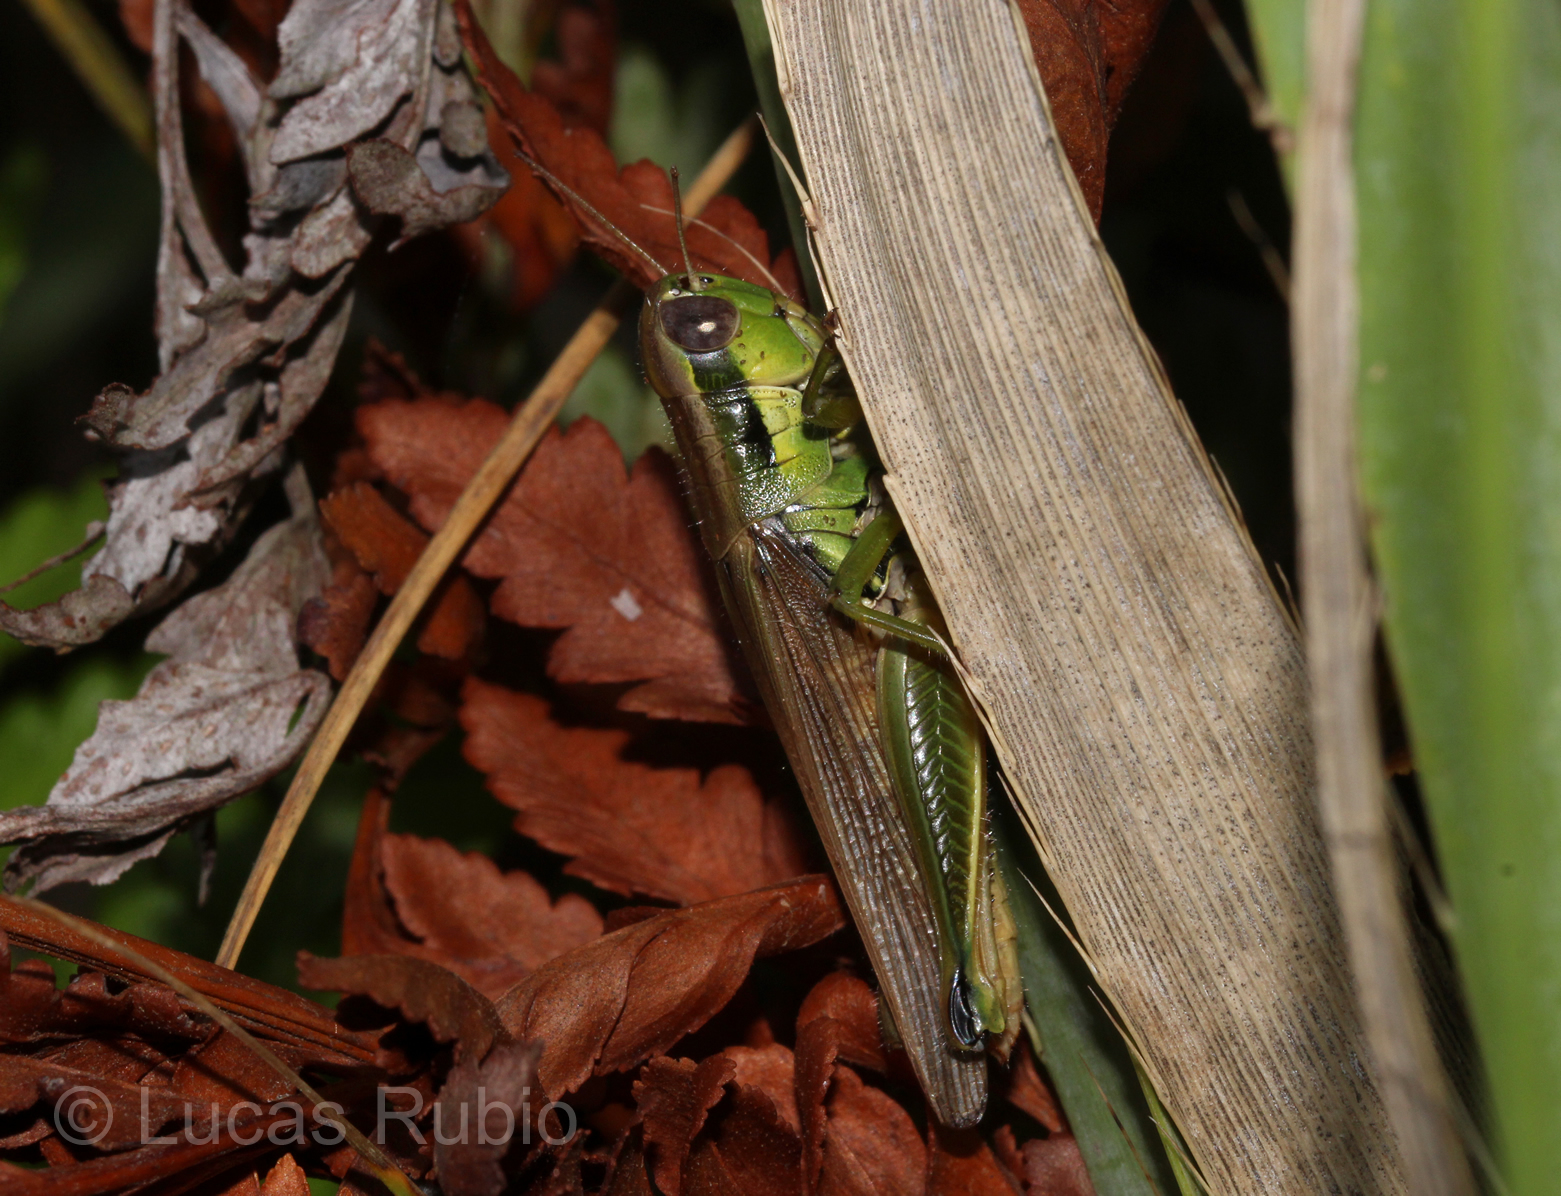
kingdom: Animalia
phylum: Arthropoda
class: Insecta
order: Orthoptera
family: Acrididae
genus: Leiotettix
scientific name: Leiotettix pulcher
